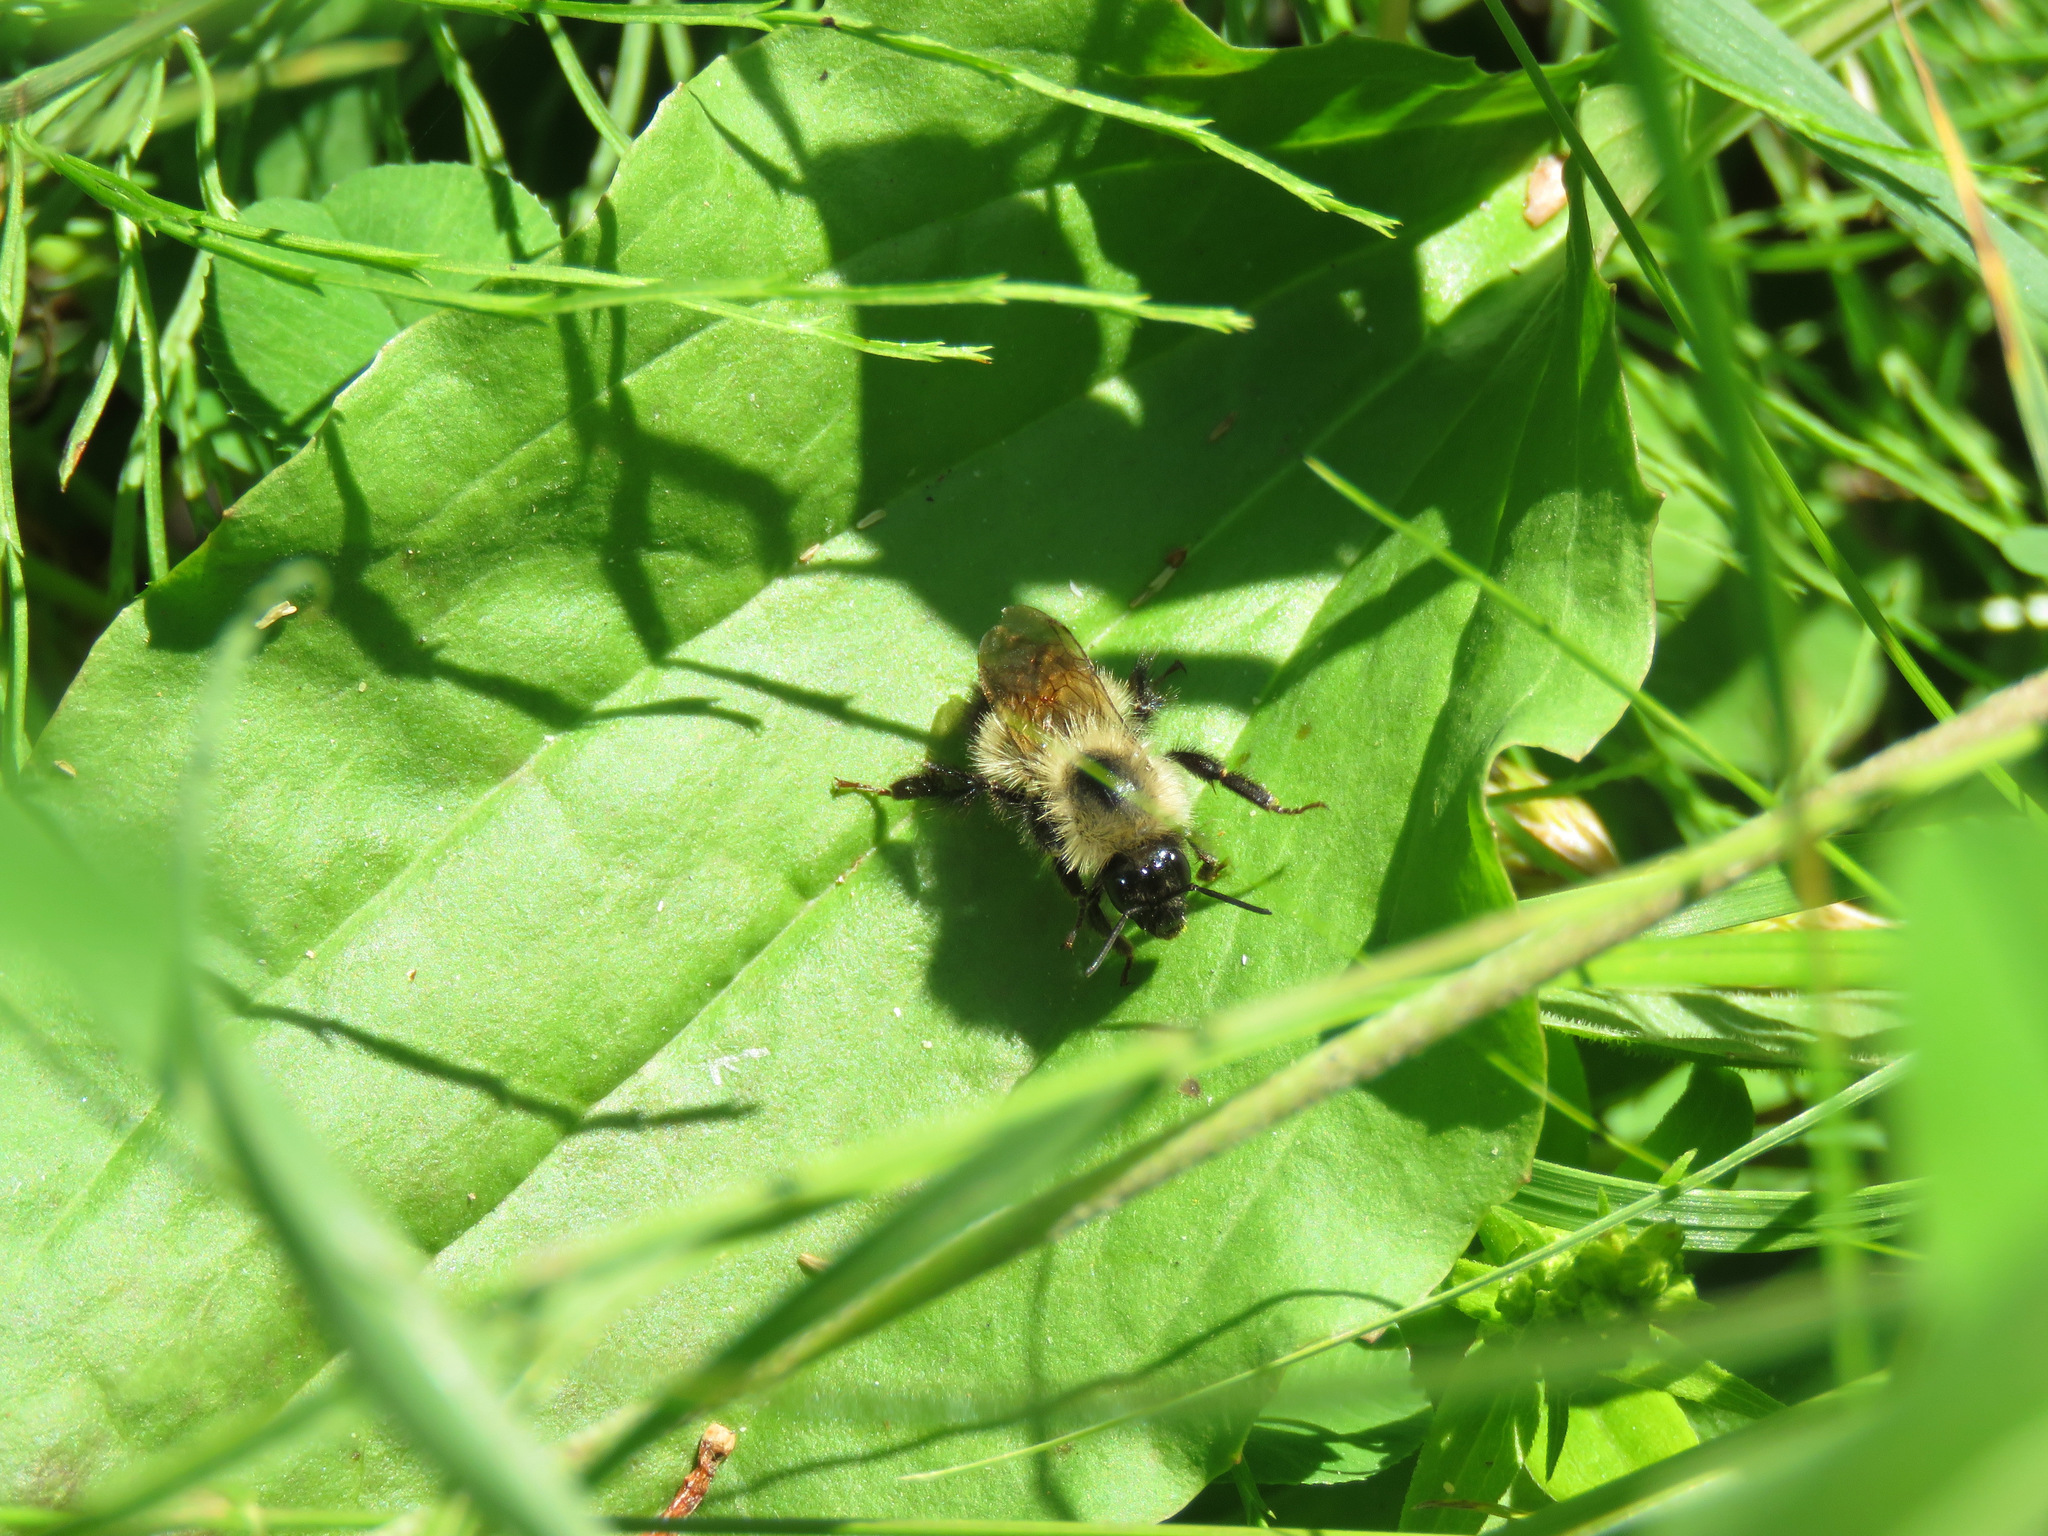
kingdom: Animalia
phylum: Arthropoda
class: Insecta
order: Hymenoptera
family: Apidae
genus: Bombus
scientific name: Bombus vagans
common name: Half-black bumble bee
